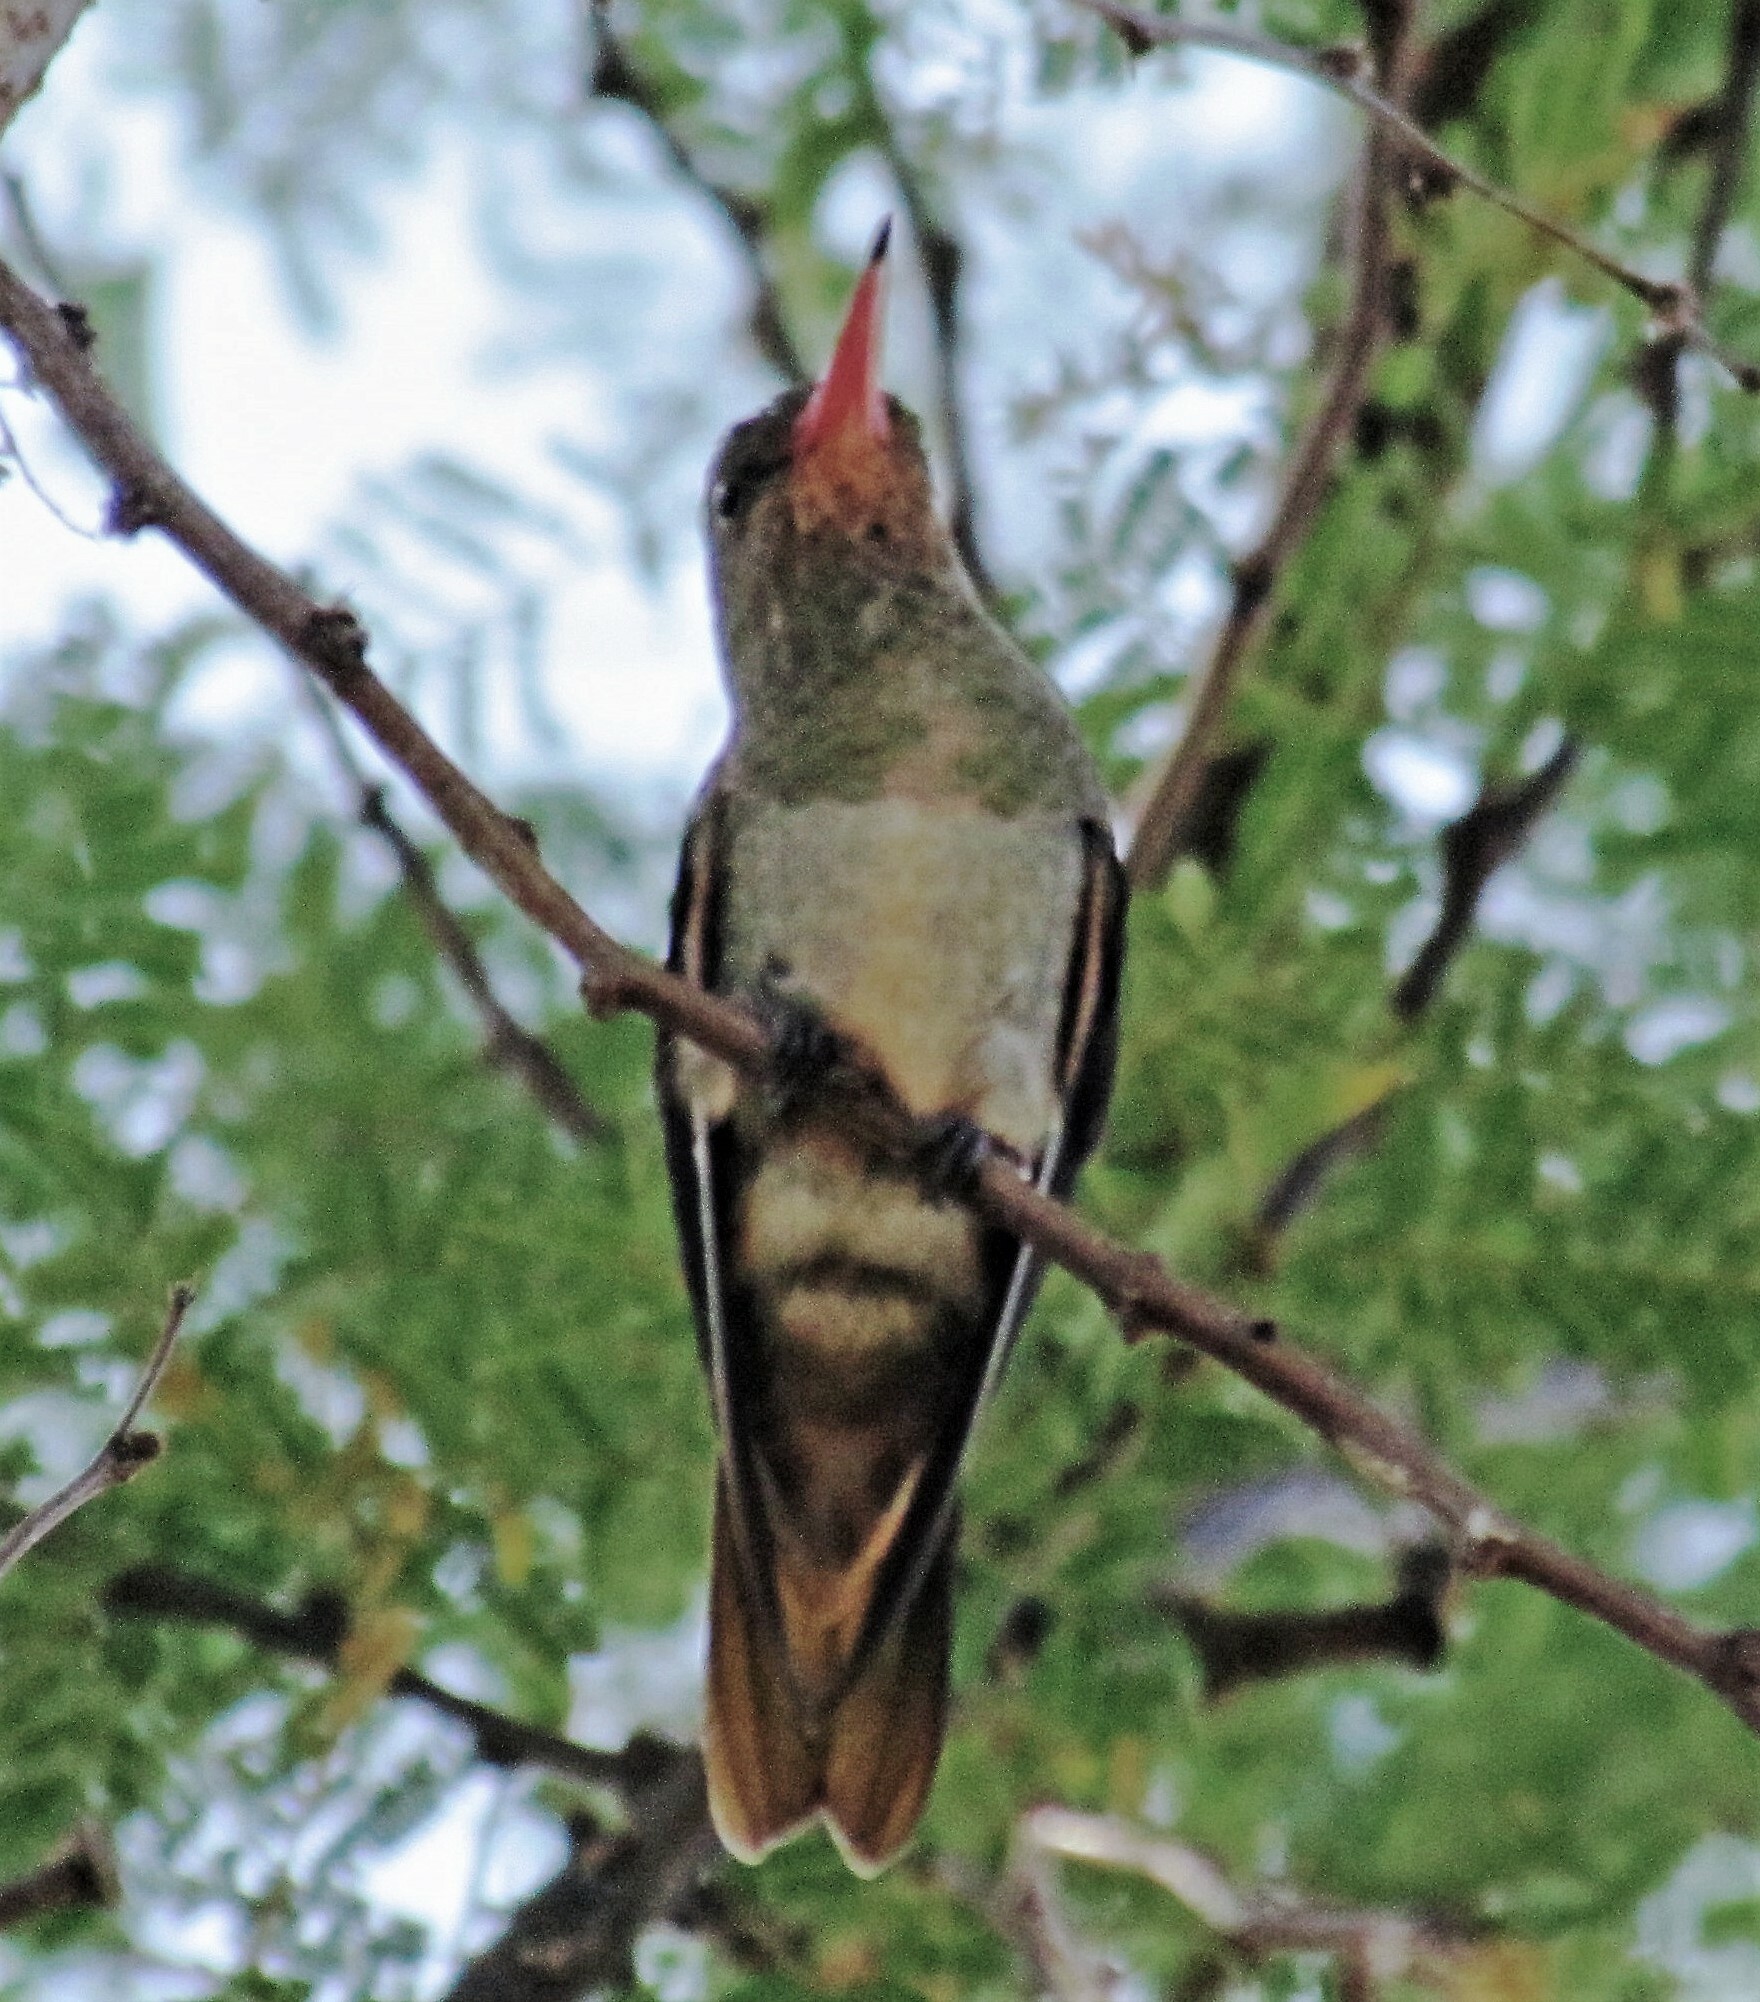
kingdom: Animalia
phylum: Chordata
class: Aves
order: Apodiformes
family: Trochilidae
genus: Hylocharis
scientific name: Hylocharis chrysura
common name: Gilded sapphire
